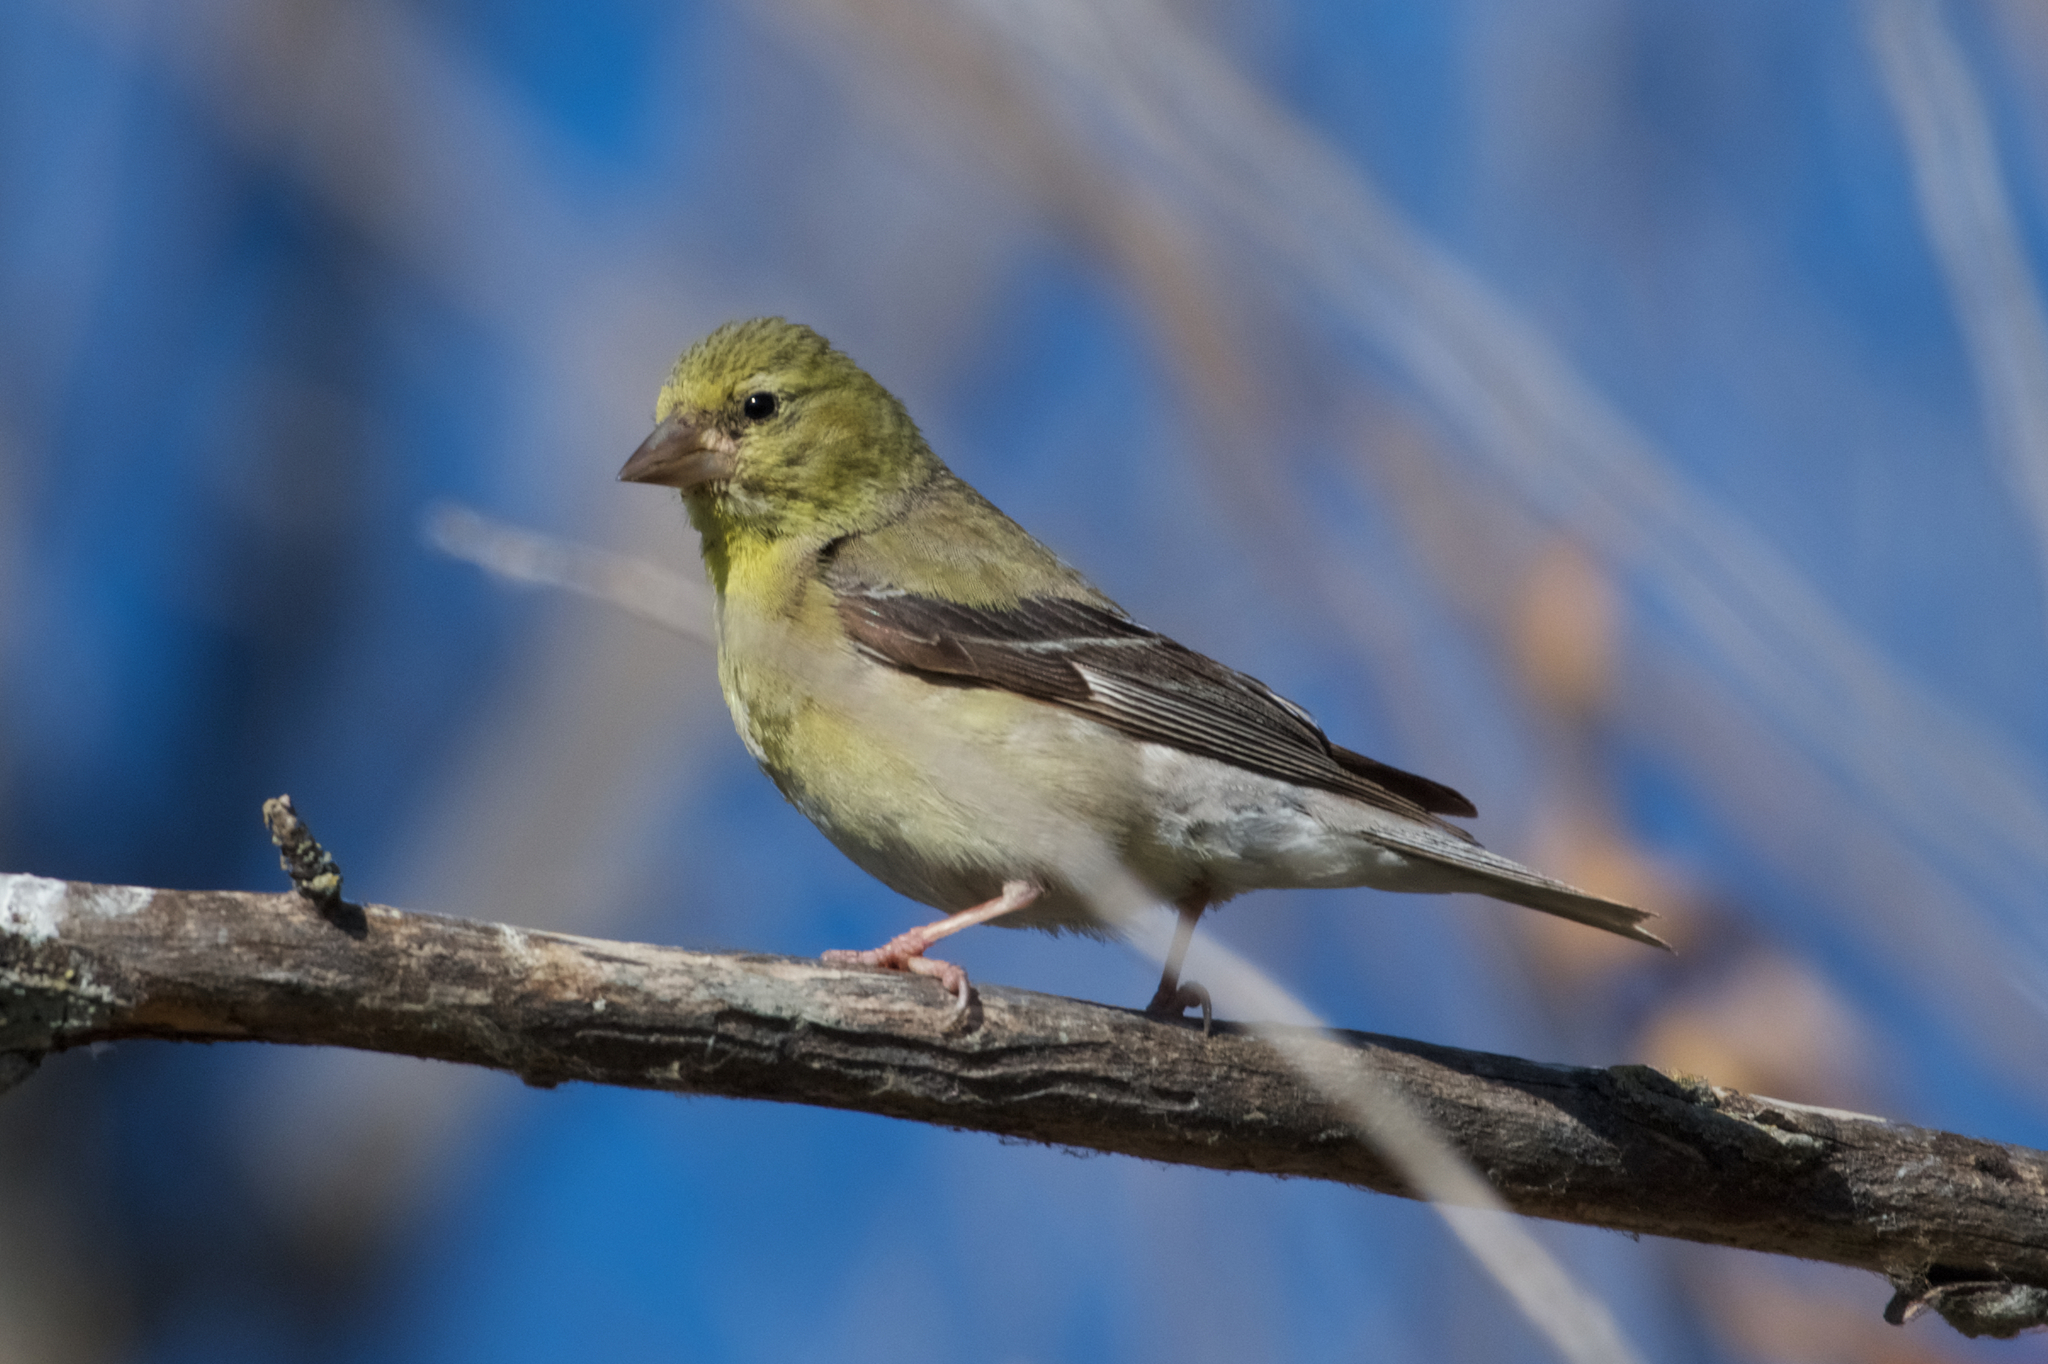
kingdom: Animalia
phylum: Chordata
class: Aves
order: Passeriformes
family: Fringillidae
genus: Spinus
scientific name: Spinus tristis
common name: American goldfinch
